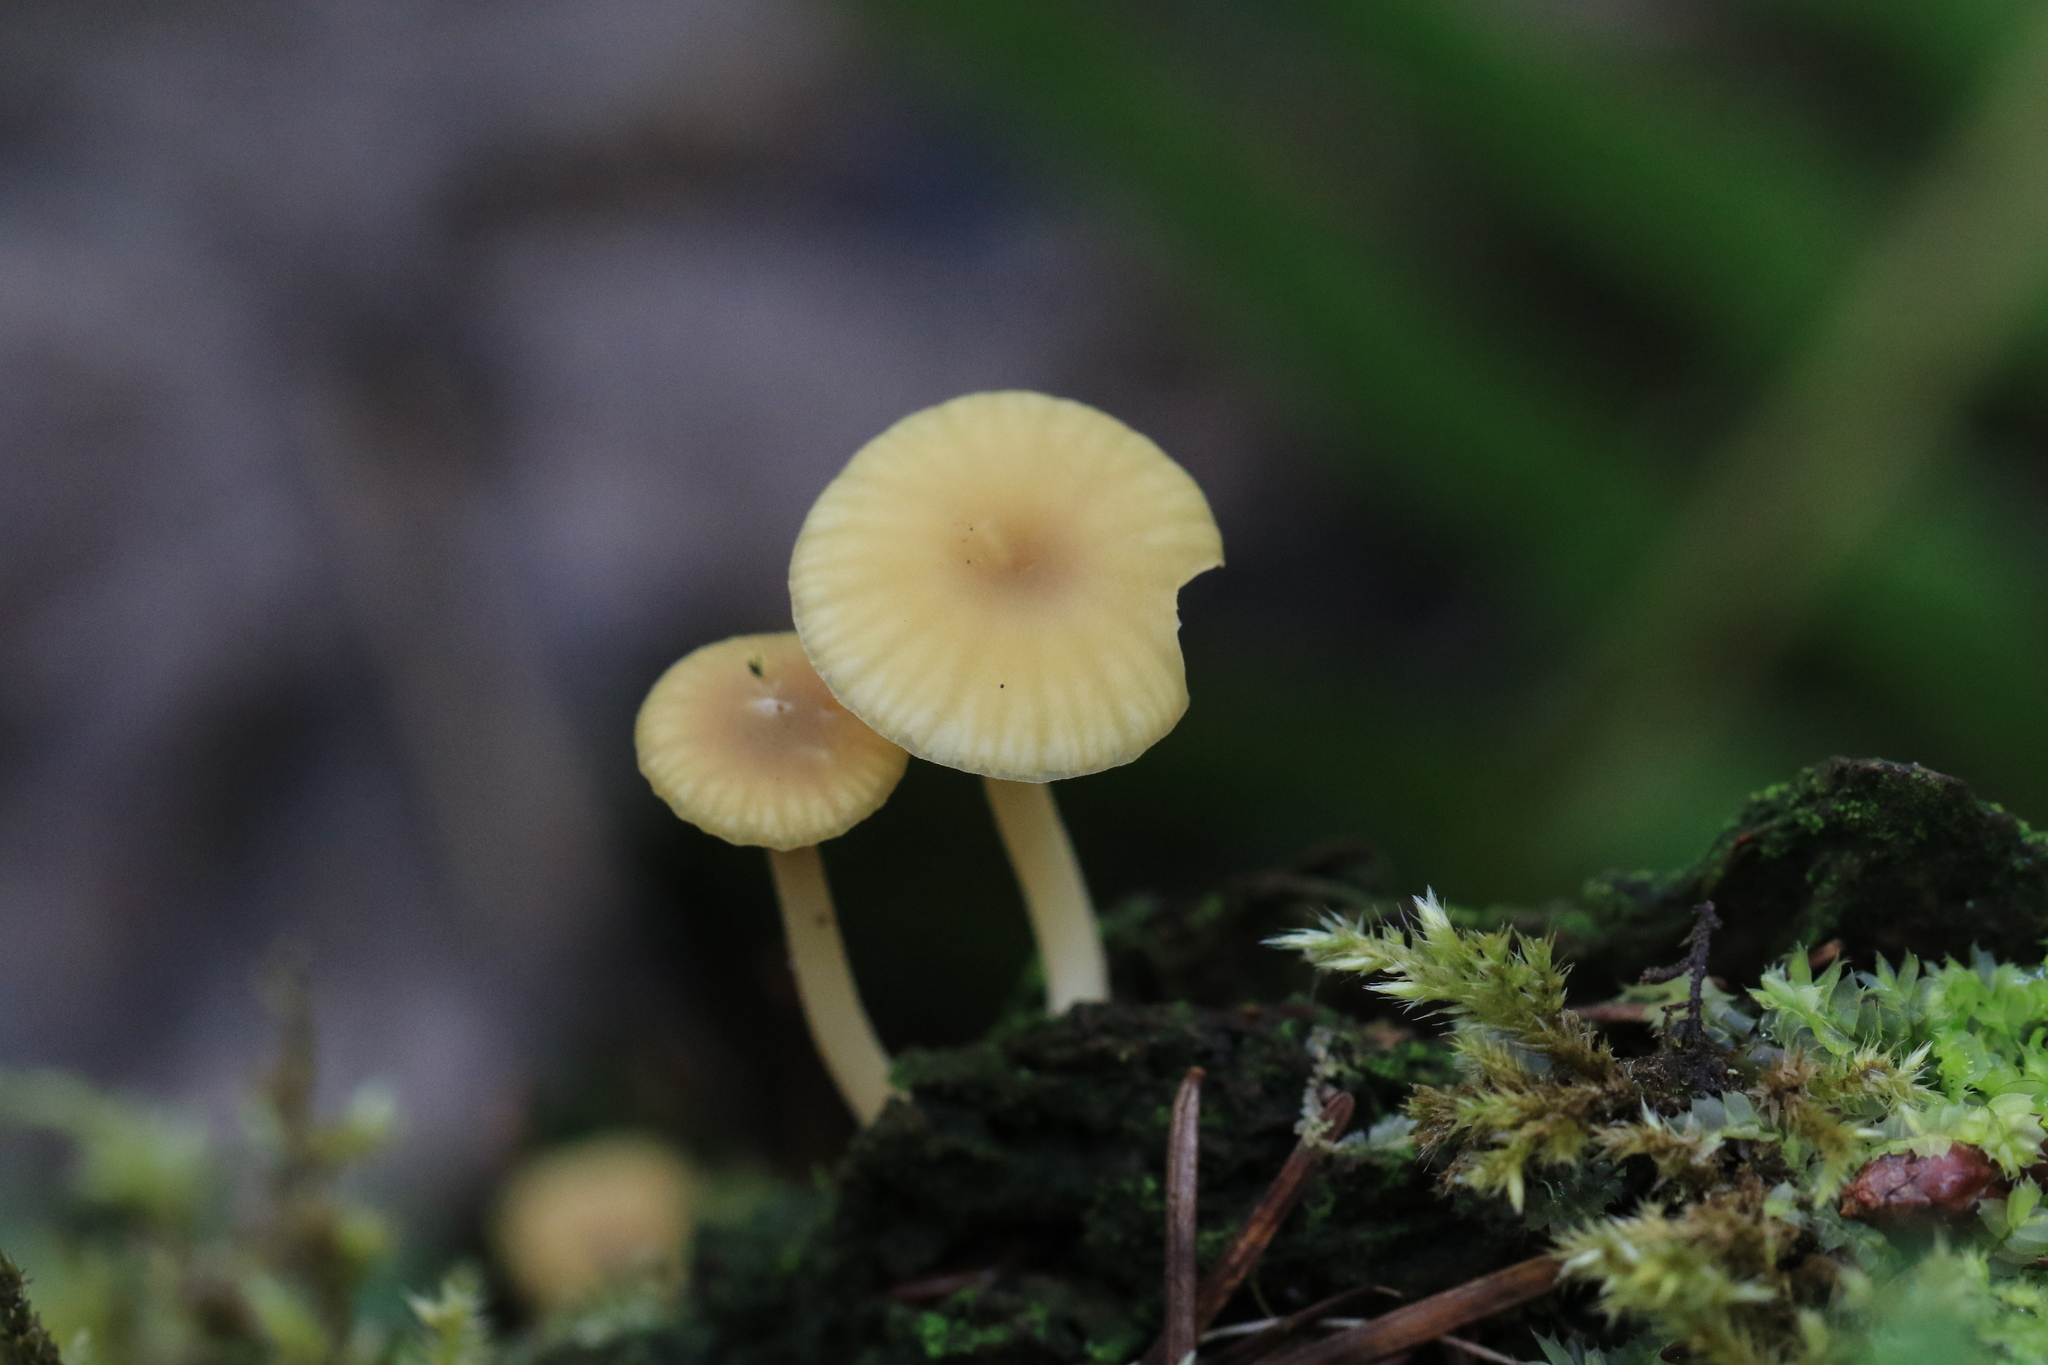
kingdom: Fungi
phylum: Basidiomycota
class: Agaricomycetes
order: Agaricales
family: Hygrophoraceae
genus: Lichenomphalia
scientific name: Lichenomphalia
